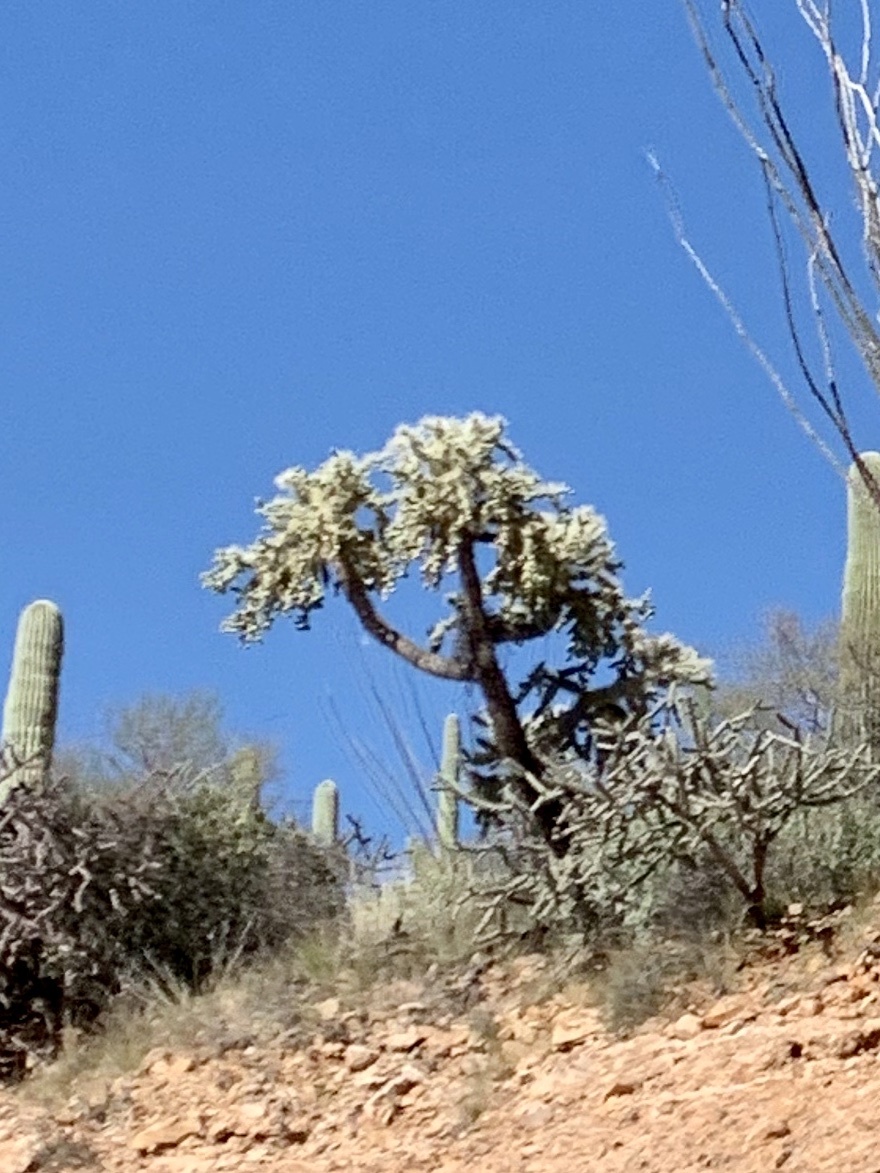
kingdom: Plantae
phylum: Tracheophyta
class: Magnoliopsida
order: Caryophyllales
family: Cactaceae
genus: Cylindropuntia
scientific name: Cylindropuntia fulgida
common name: Jumping cholla
